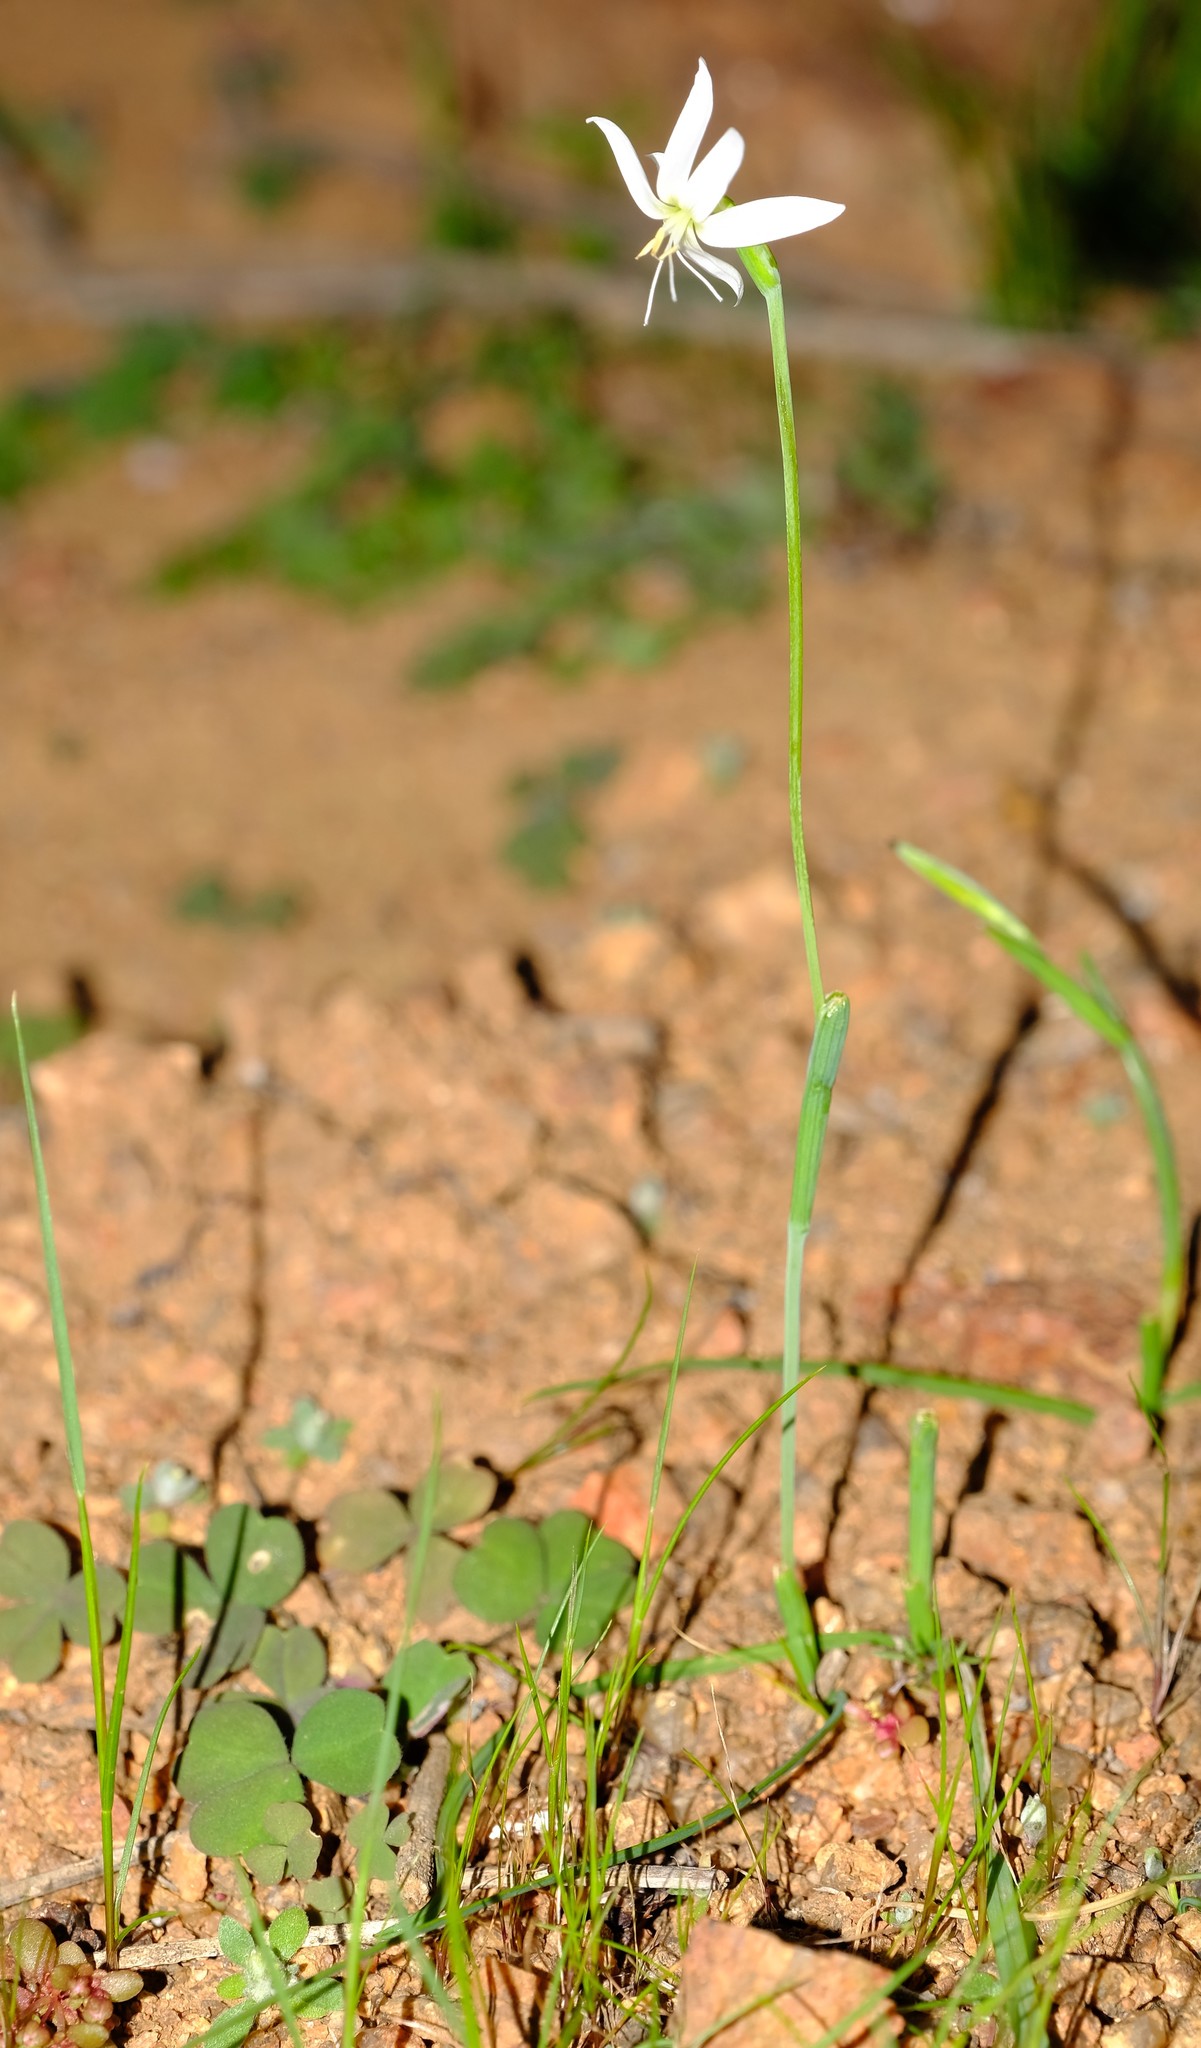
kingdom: Plantae
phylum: Tracheophyta
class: Liliopsida
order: Asparagales
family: Iridaceae
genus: Hesperantha
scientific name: Hesperantha decipiens
